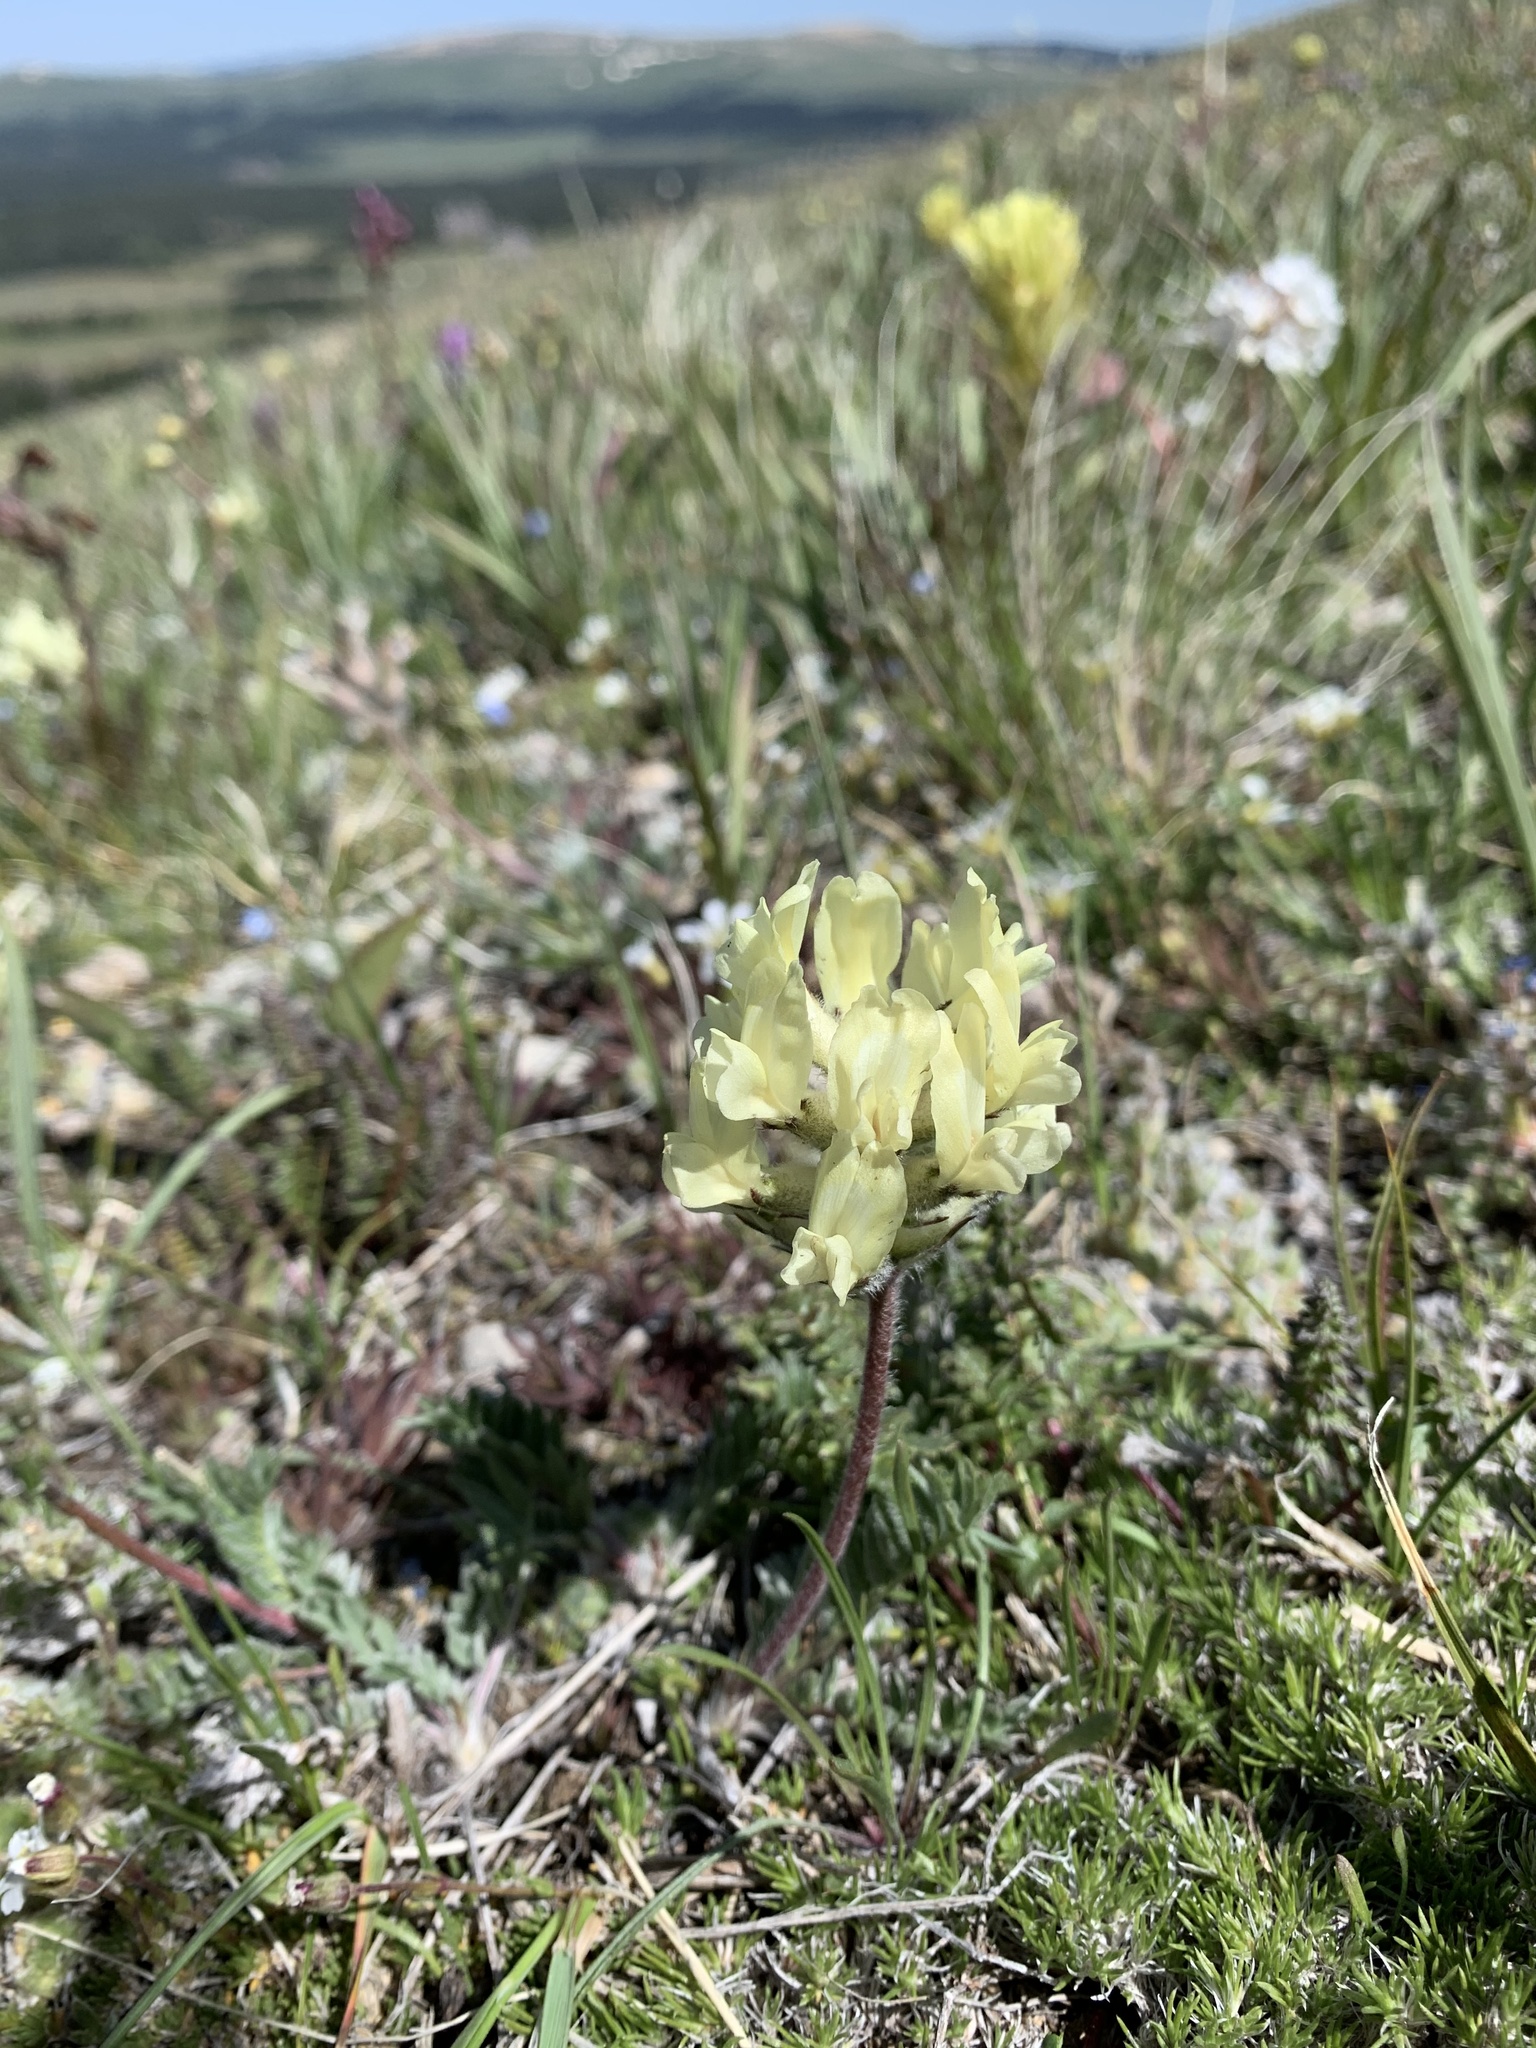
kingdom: Plantae
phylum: Tracheophyta
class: Magnoliopsida
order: Fabales
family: Fabaceae
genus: Oxytropis
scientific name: Oxytropis campestris
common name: Field locoweed
